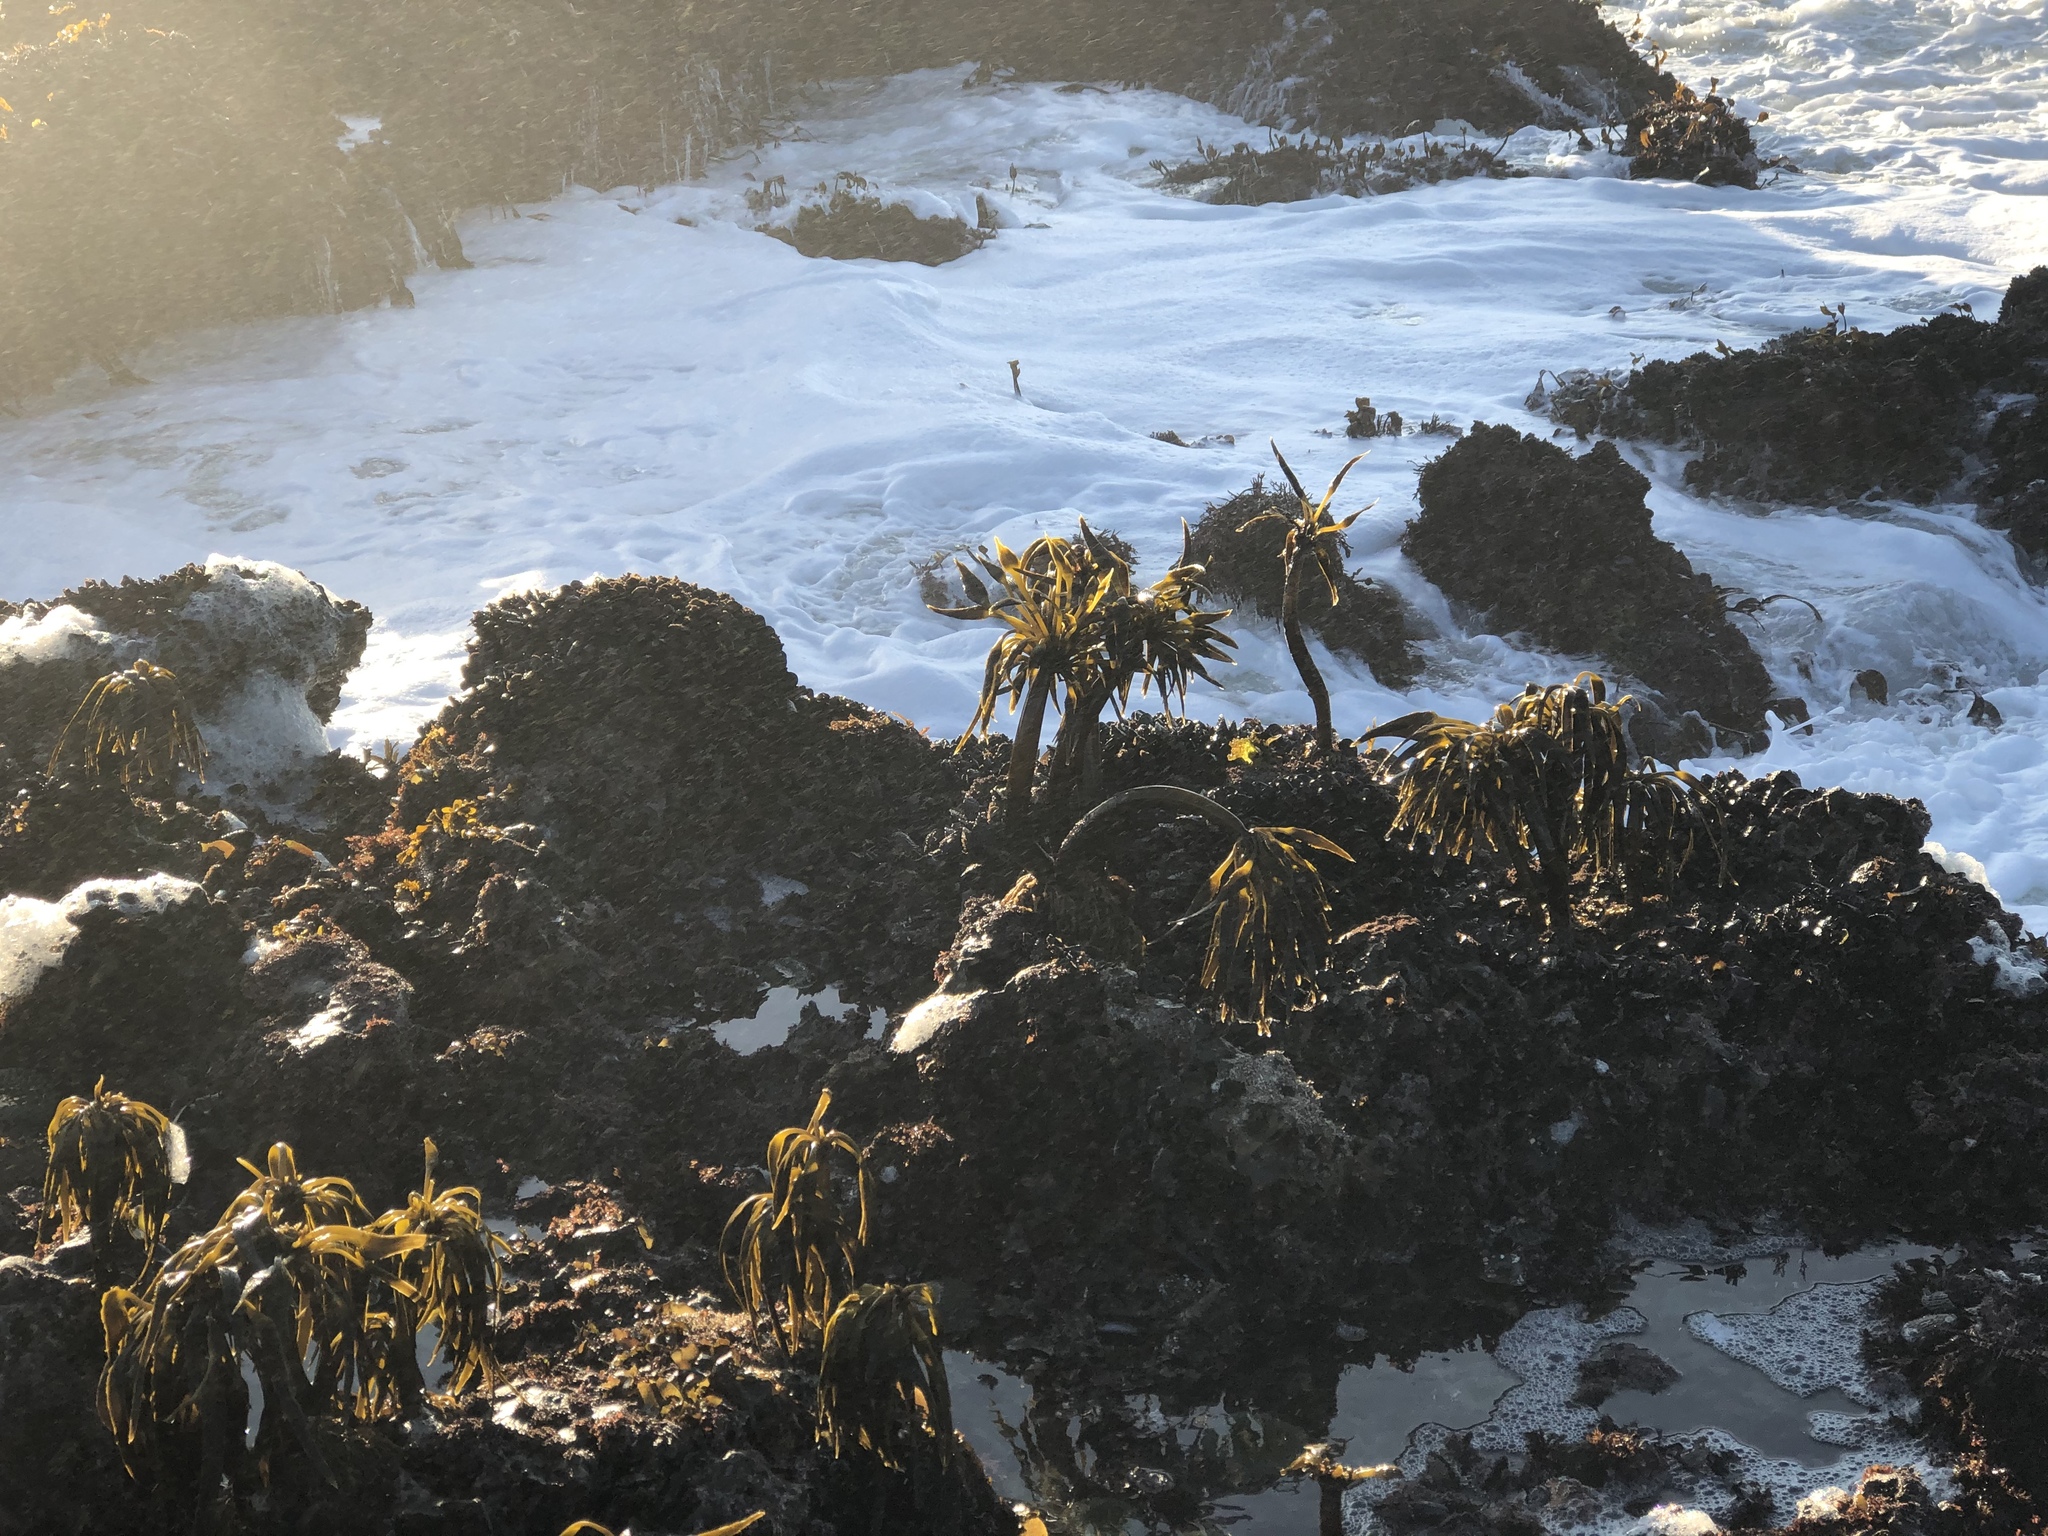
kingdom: Chromista
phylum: Ochrophyta
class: Phaeophyceae
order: Laminariales
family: Laminariaceae
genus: Postelsia
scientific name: Postelsia palmiformis
